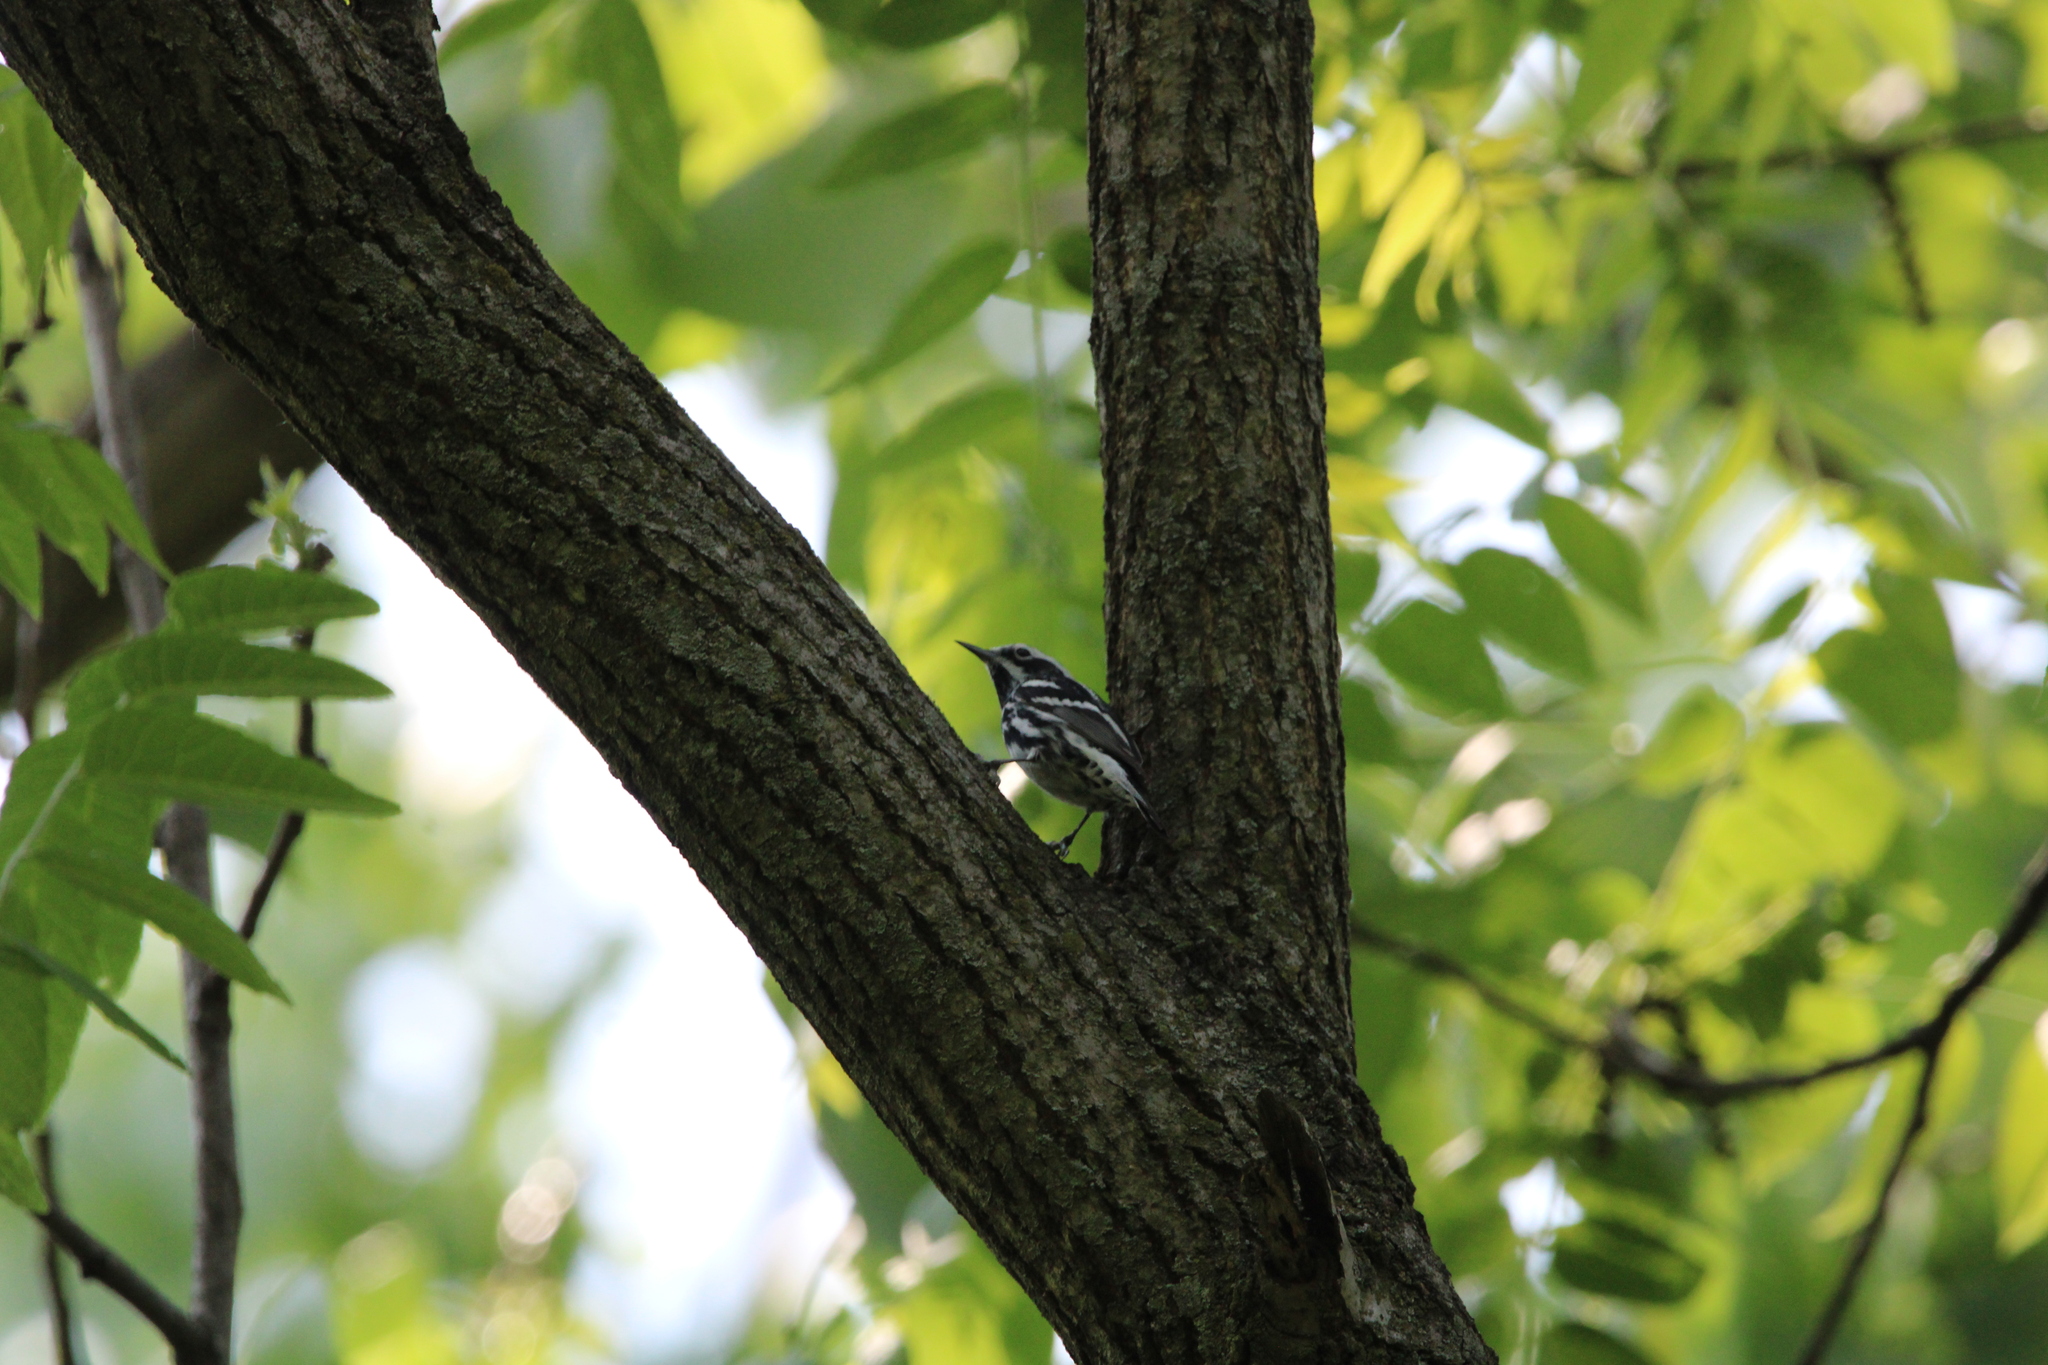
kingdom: Animalia
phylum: Chordata
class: Aves
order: Passeriformes
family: Parulidae
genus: Mniotilta
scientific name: Mniotilta varia
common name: Black-and-white warbler
